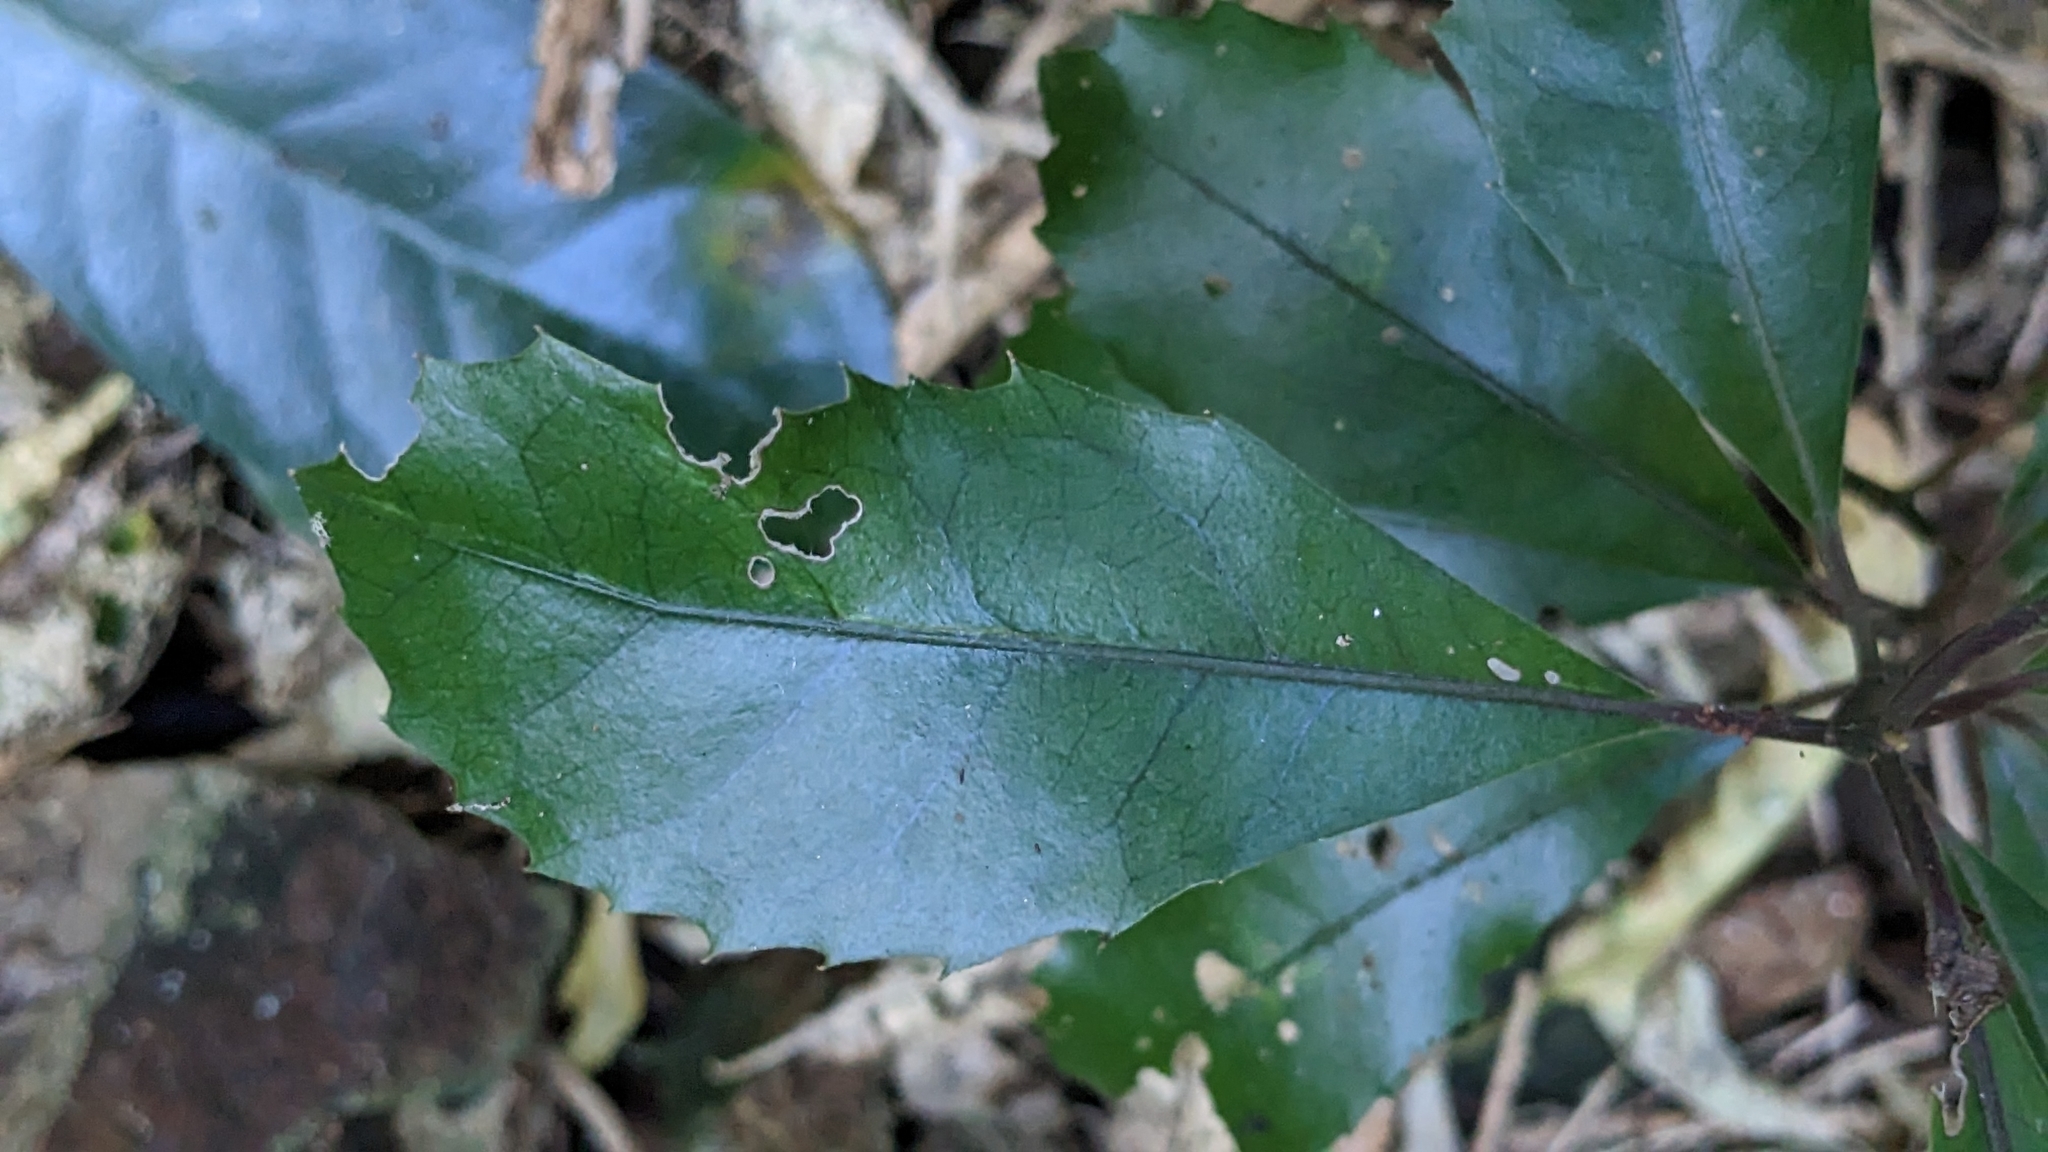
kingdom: Plantae
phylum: Tracheophyta
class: Magnoliopsida
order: Laurales
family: Monimiaceae
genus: Hedycarya
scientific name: Hedycarya arborea
